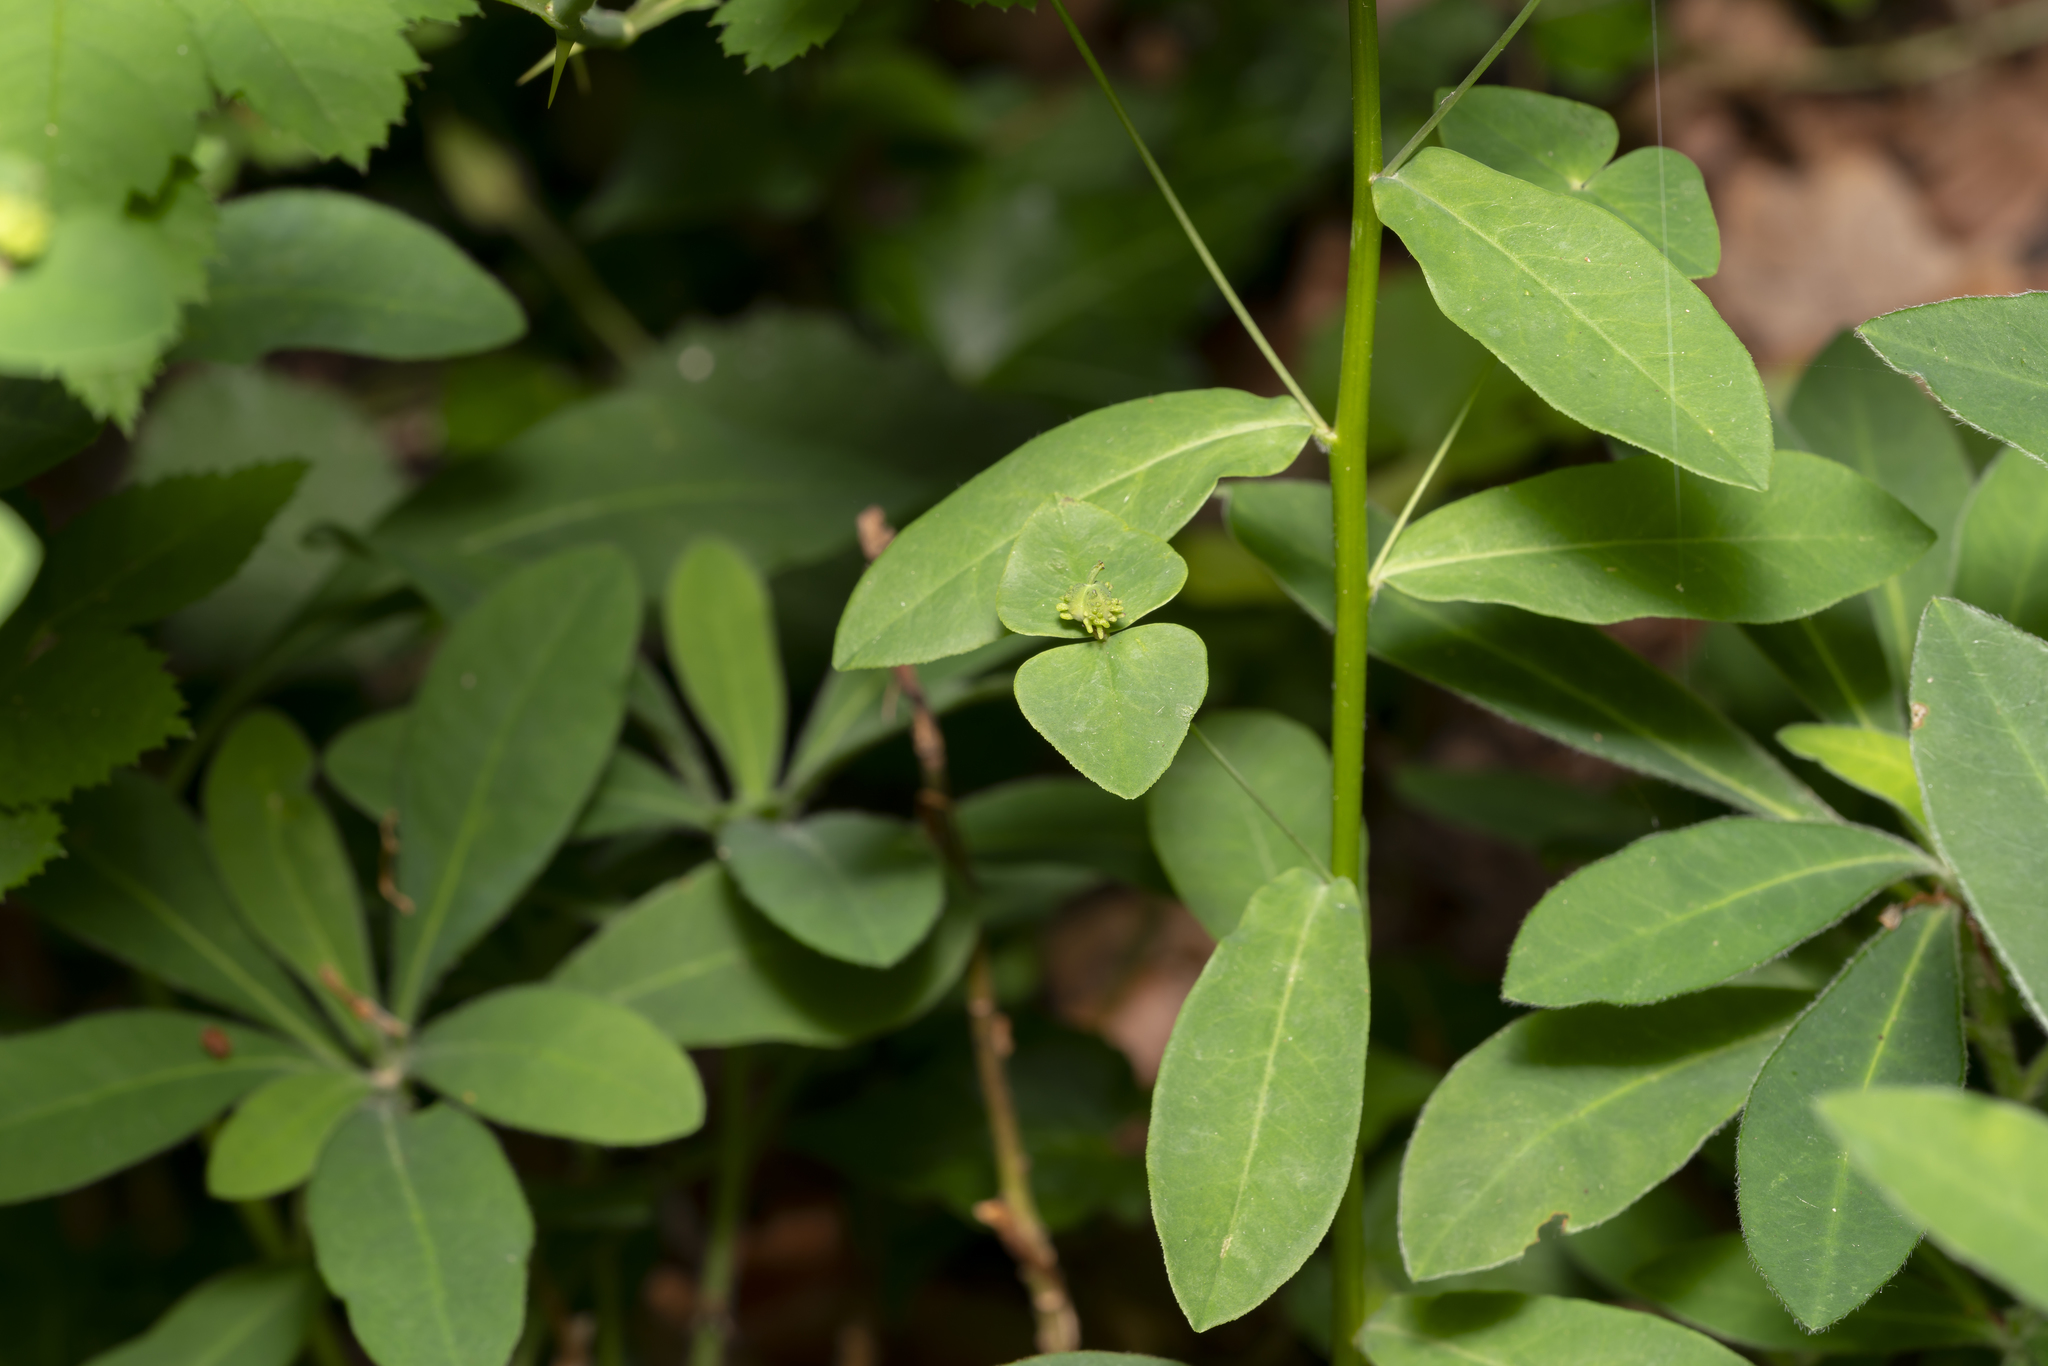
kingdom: Plantae
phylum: Tracheophyta
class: Magnoliopsida
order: Malpighiales
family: Euphorbiaceae
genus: Euphorbia
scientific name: Euphorbia dulcis
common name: Sweet spurge
